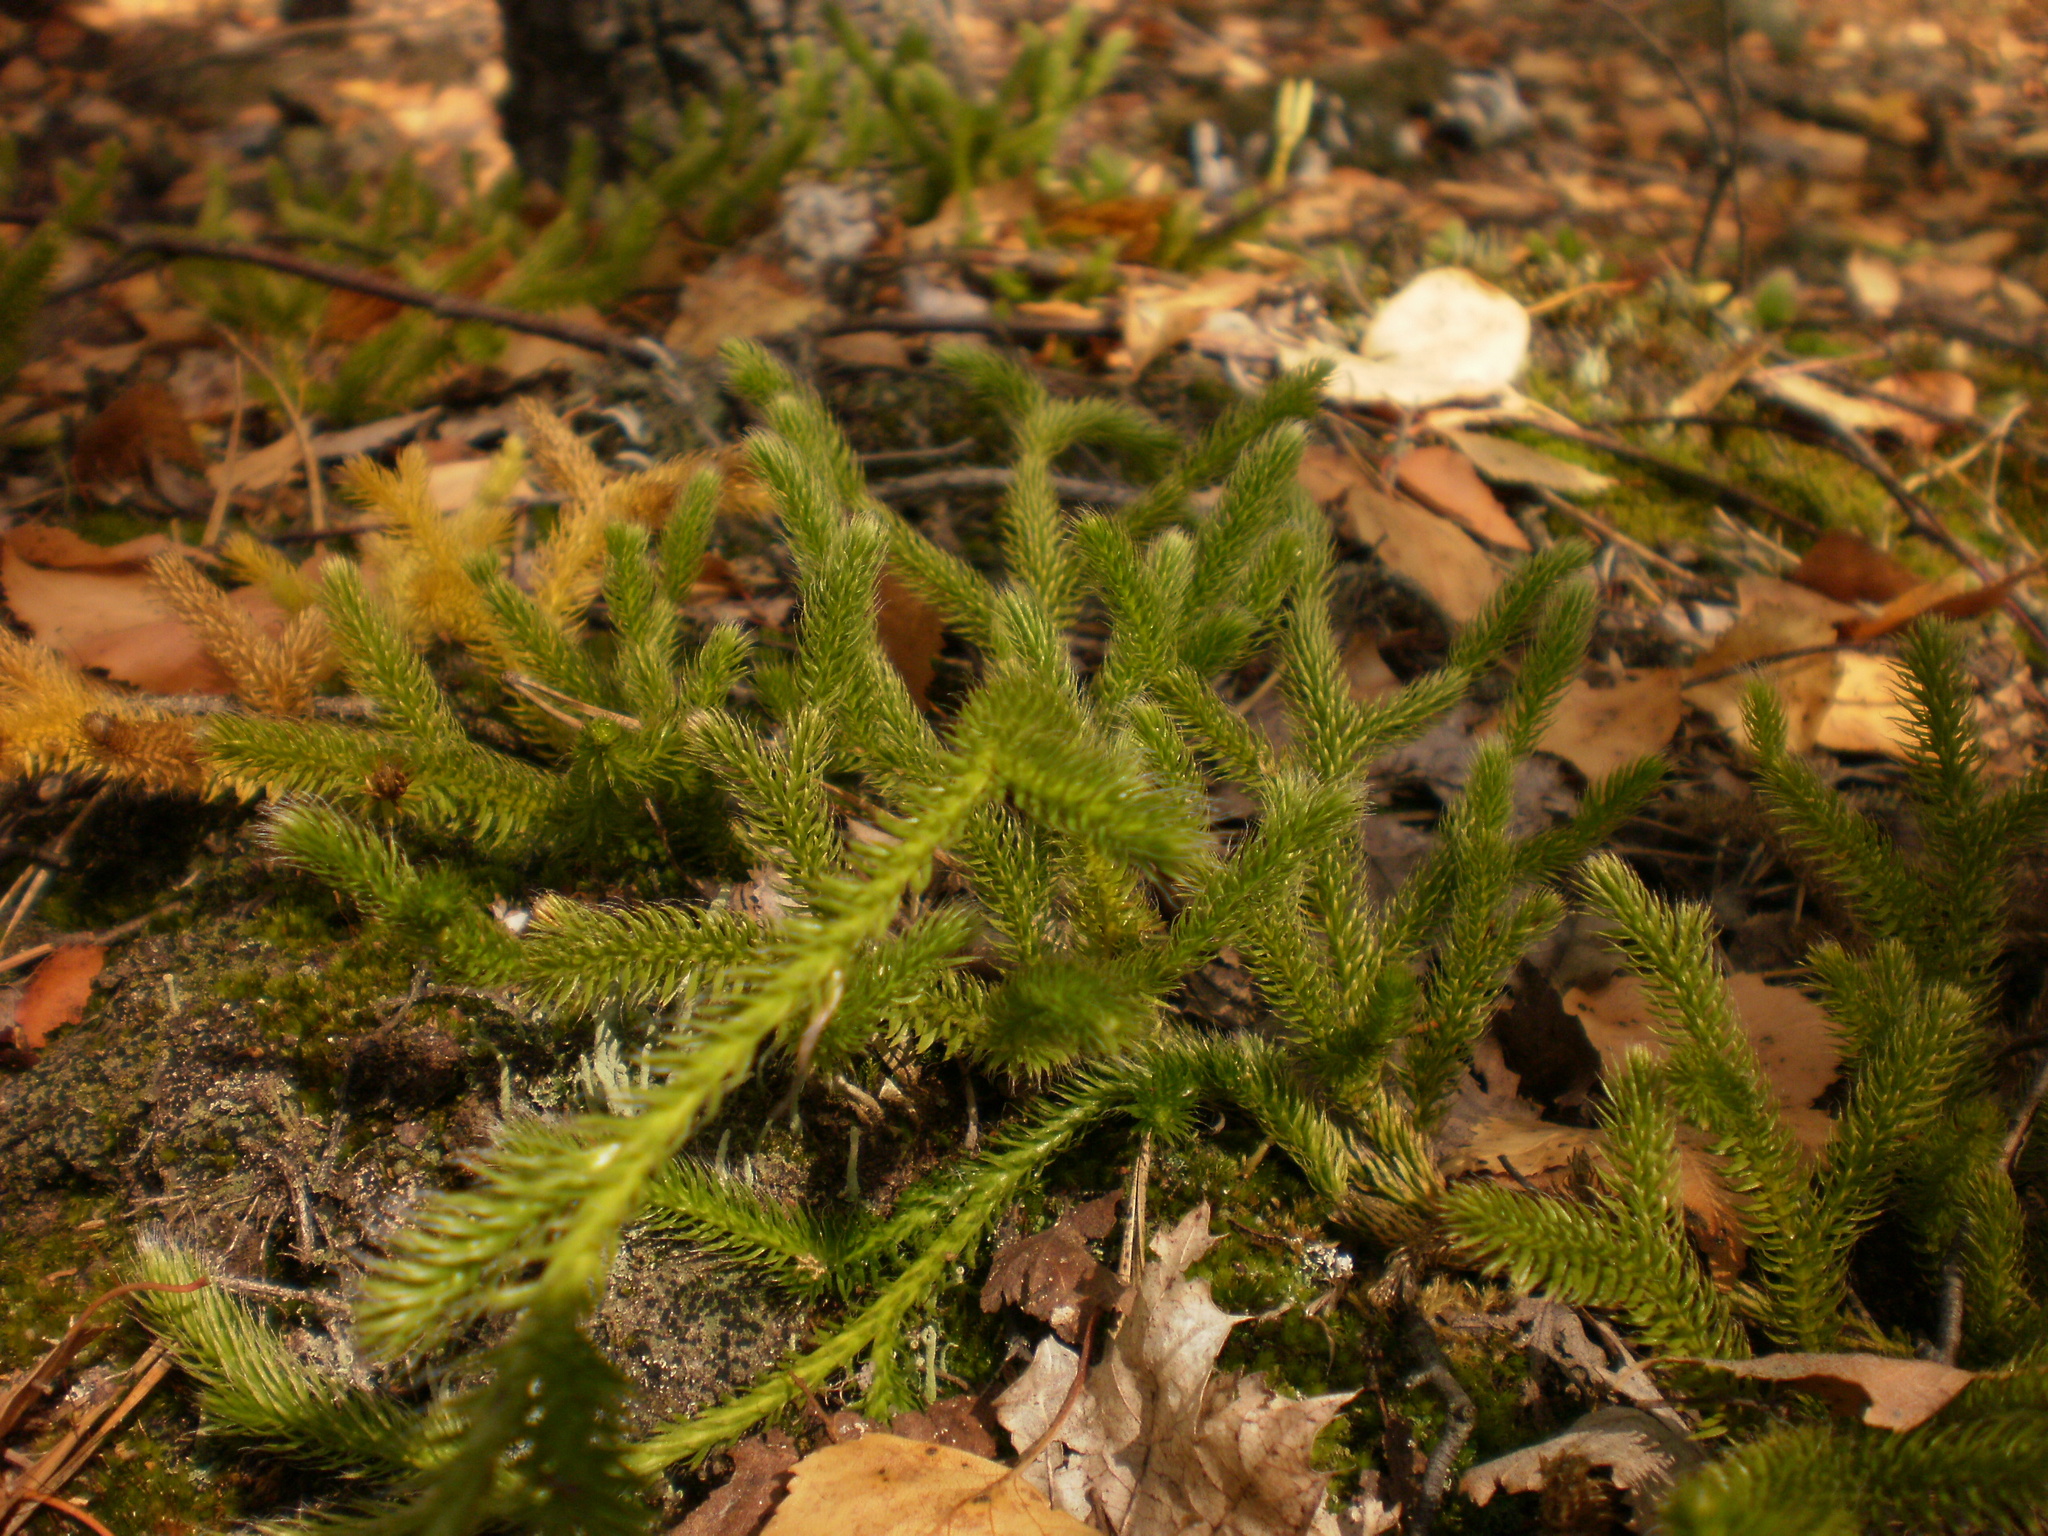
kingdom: Plantae
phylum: Tracheophyta
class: Lycopodiopsida
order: Lycopodiales
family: Lycopodiaceae
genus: Lycopodium
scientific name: Lycopodium clavatum
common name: Stag's-horn clubmoss
